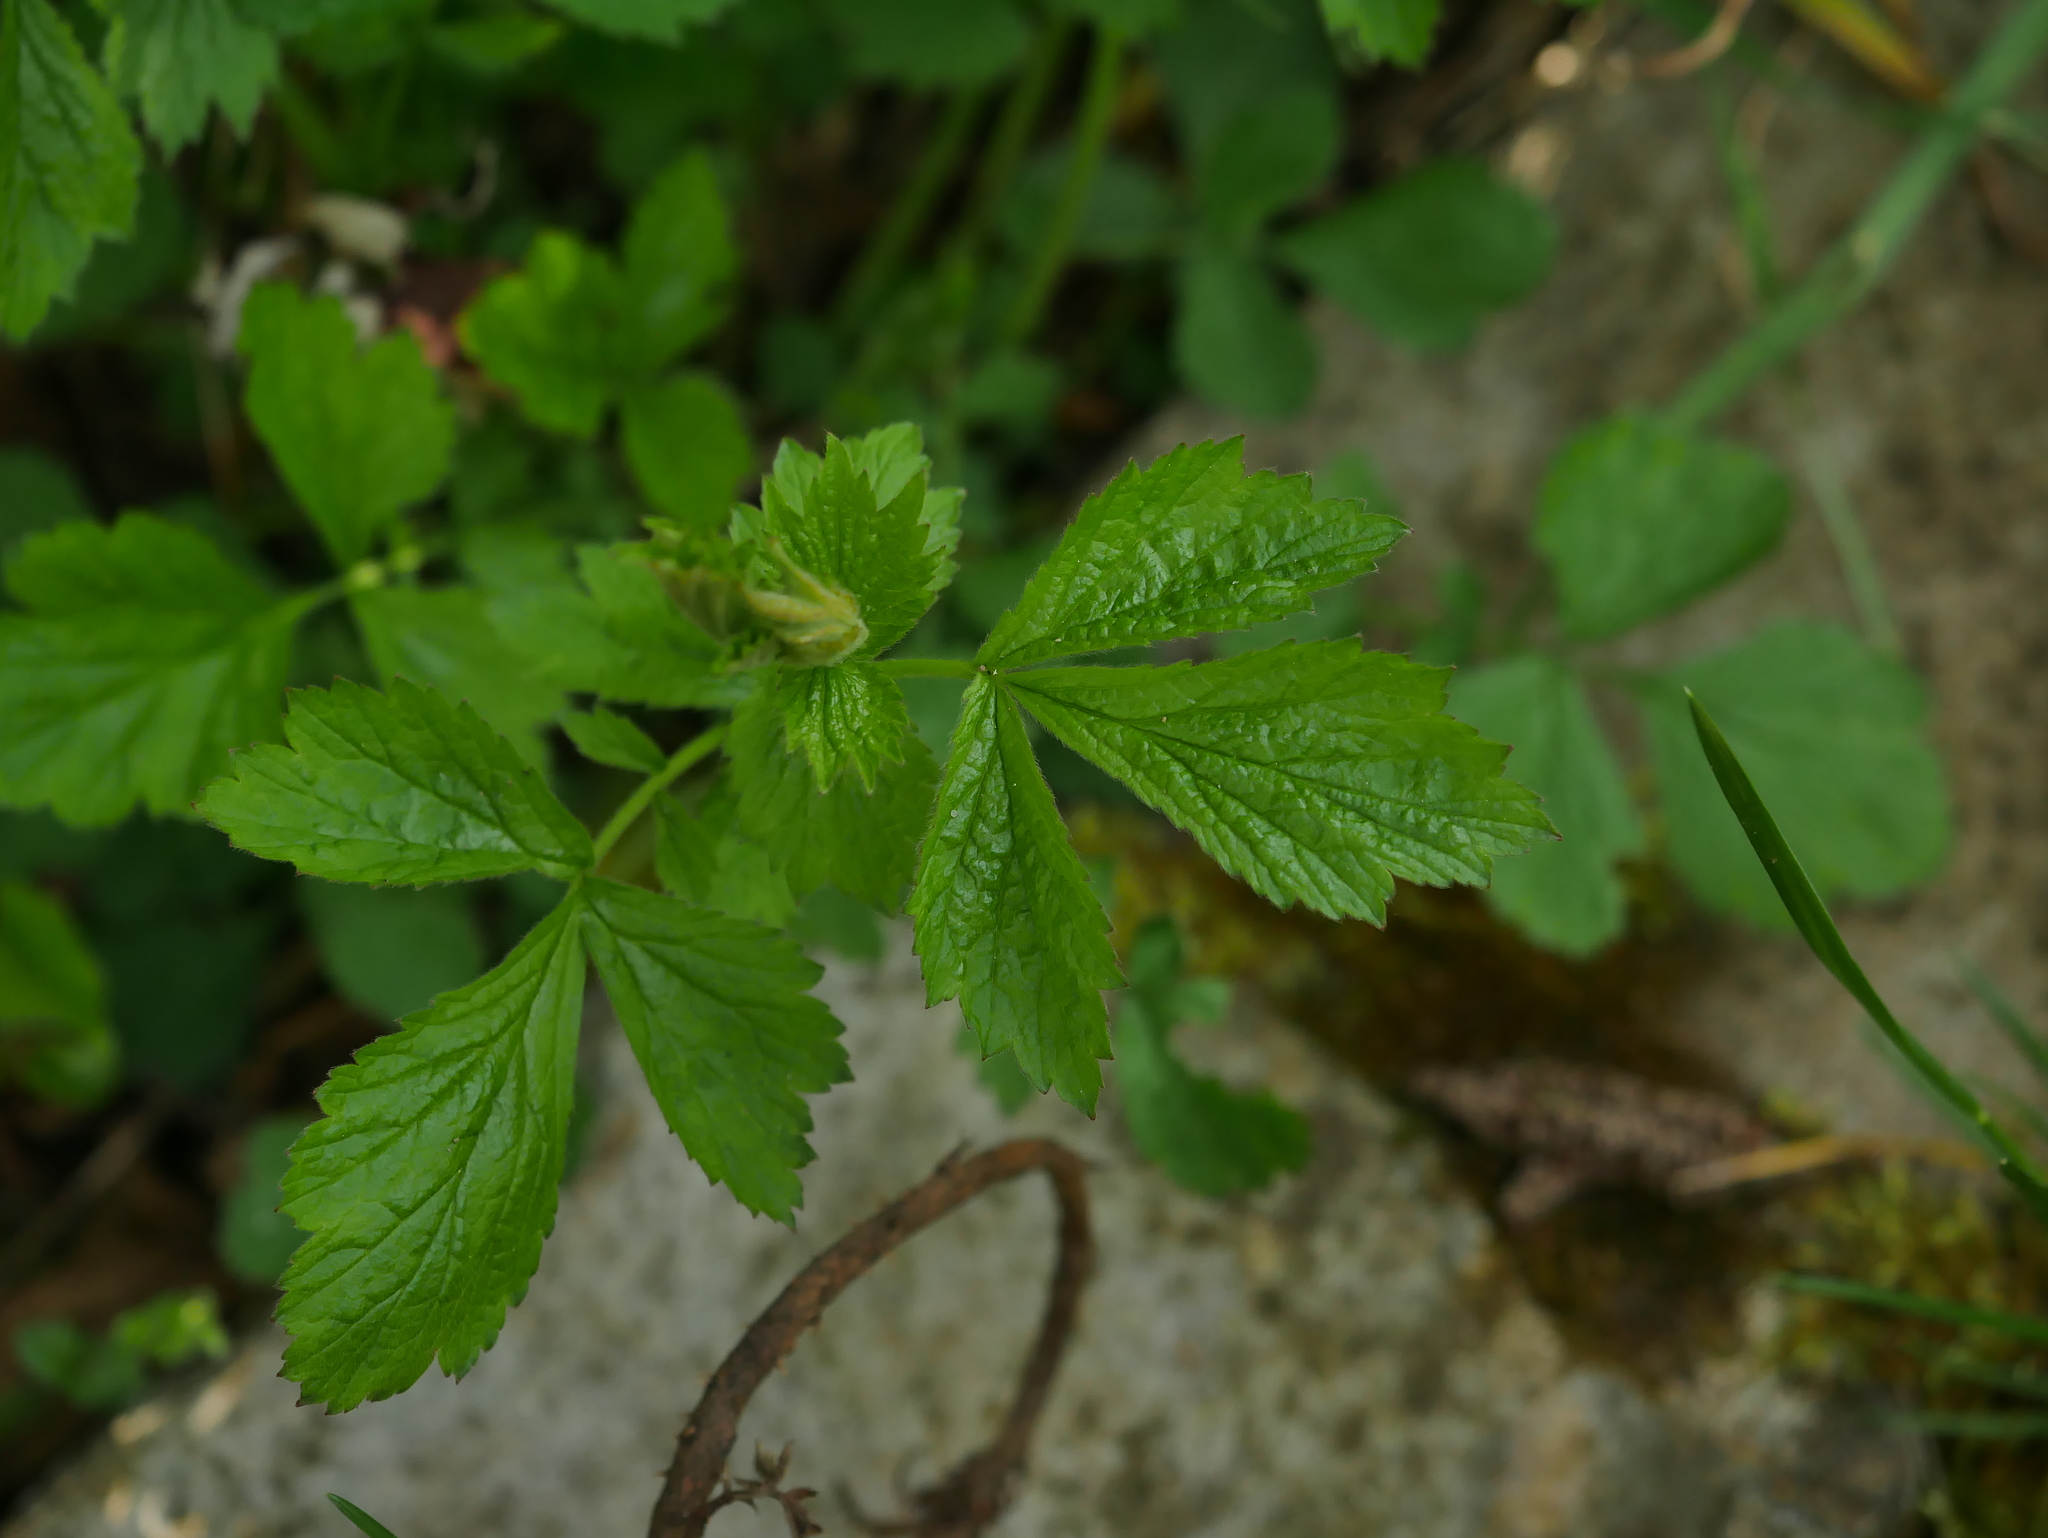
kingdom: Plantae
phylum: Tracheophyta
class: Magnoliopsida
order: Rosales
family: Rosaceae
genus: Geum
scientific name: Geum urbanum
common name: Wood avens
